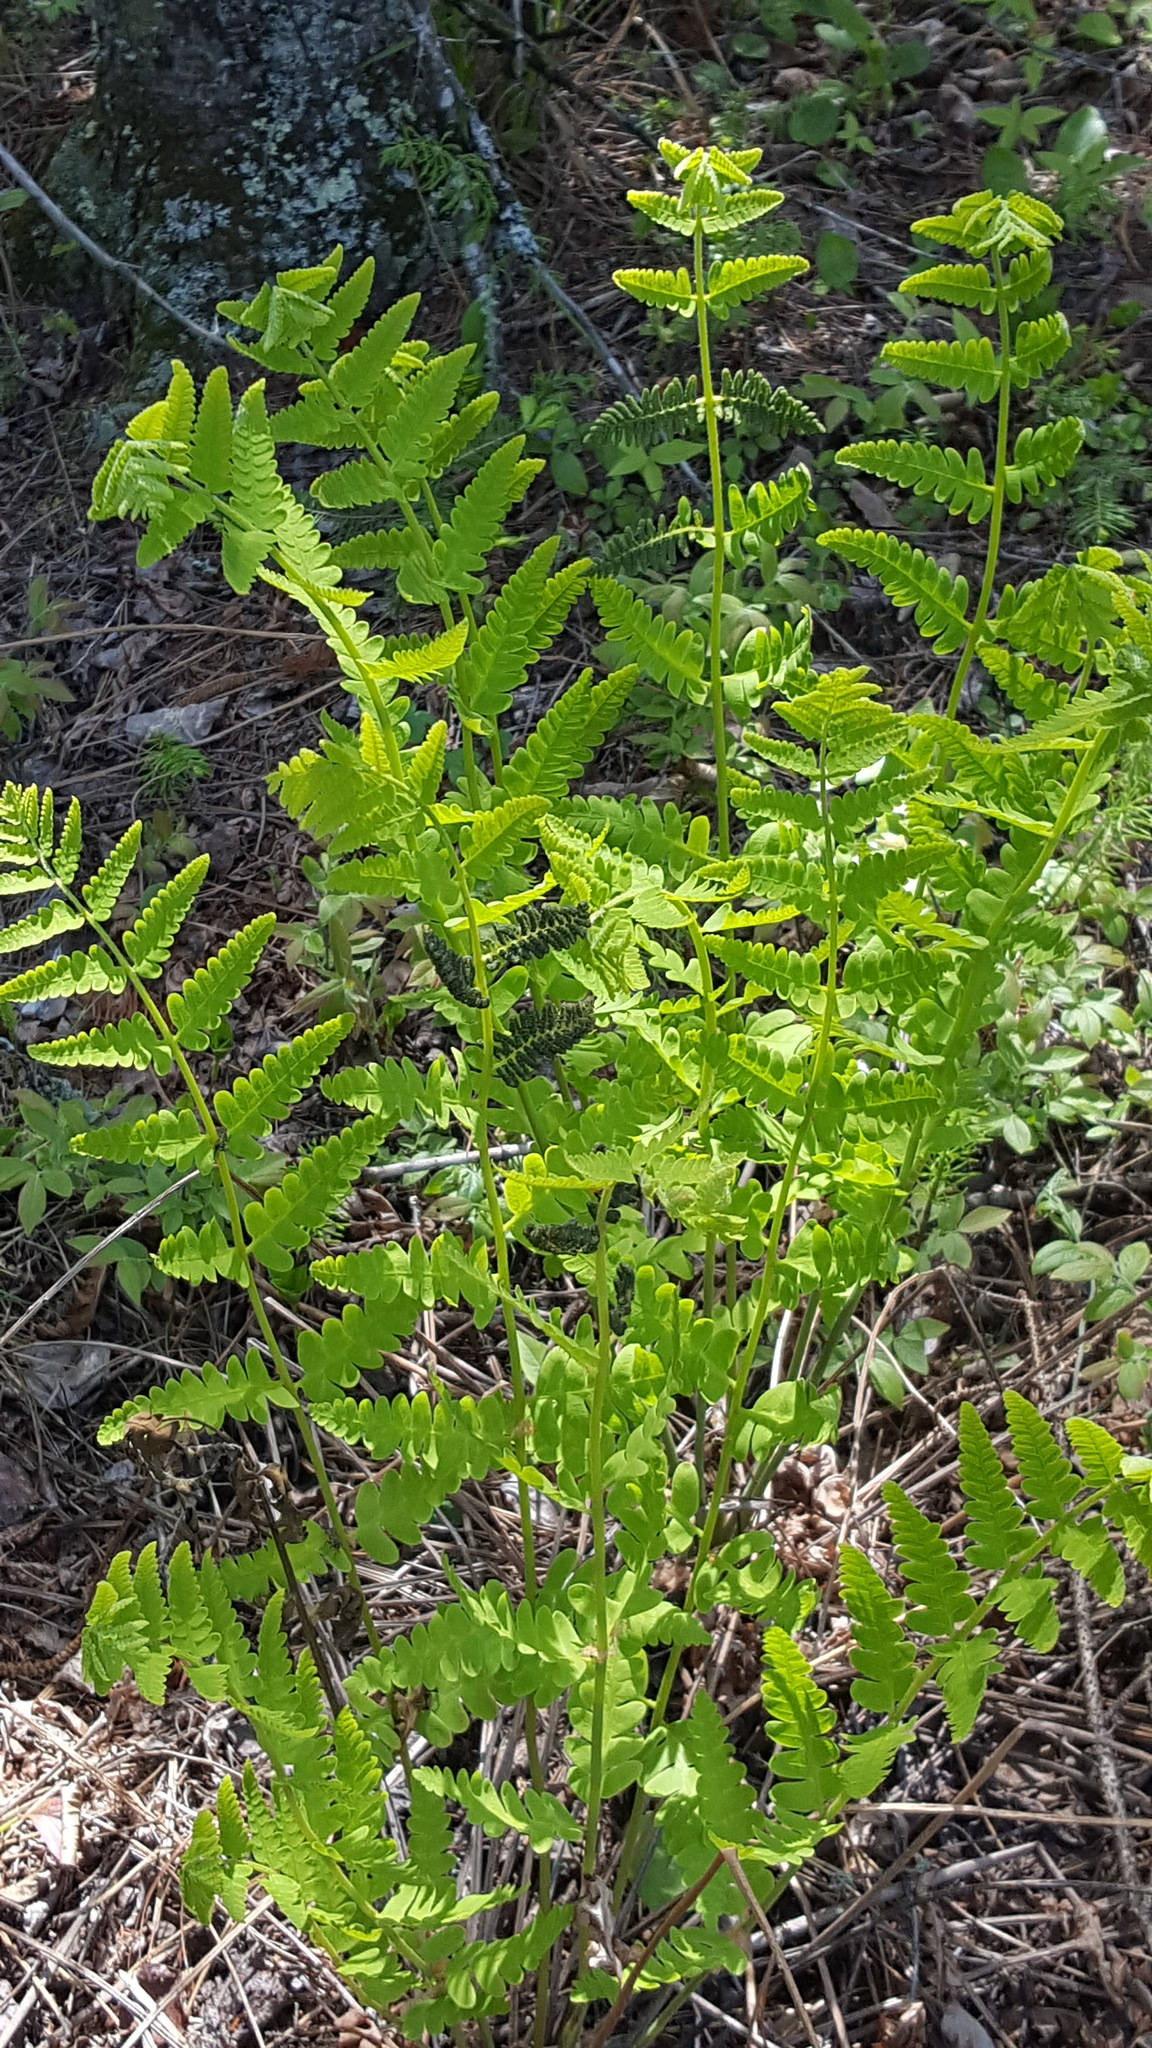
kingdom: Plantae
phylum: Tracheophyta
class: Polypodiopsida
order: Osmundales
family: Osmundaceae
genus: Claytosmunda
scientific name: Claytosmunda claytoniana
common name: Clayton's fern
